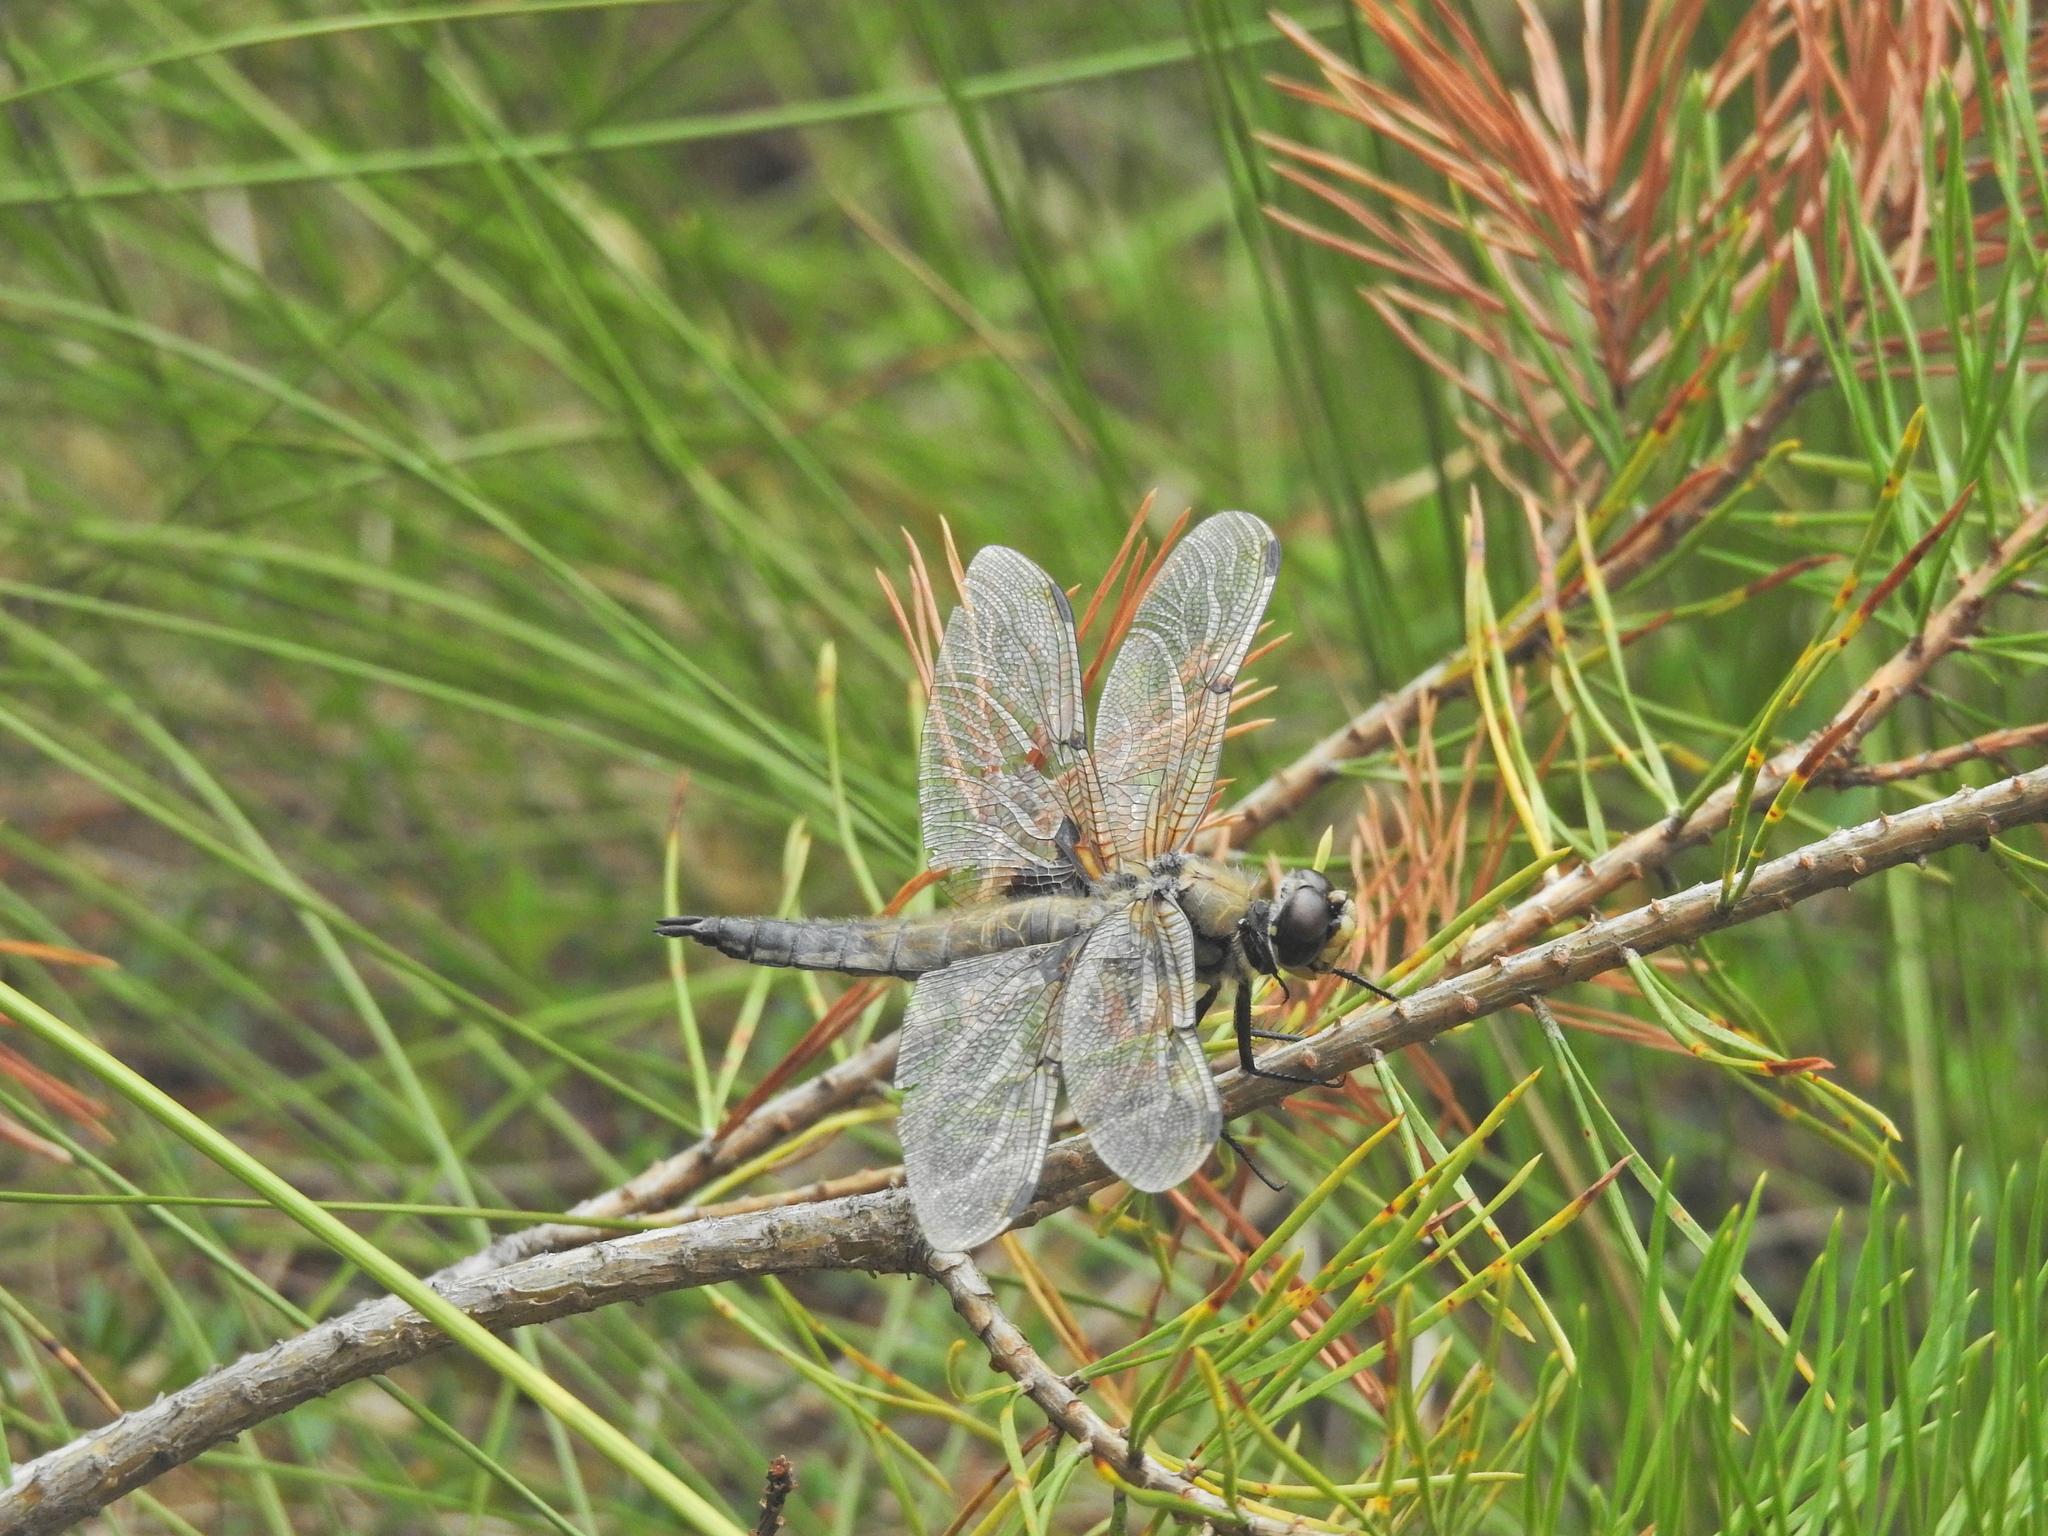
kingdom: Animalia
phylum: Arthropoda
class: Insecta
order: Odonata
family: Libellulidae
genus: Libellula
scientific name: Libellula quadrimaculata
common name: Four-spotted chaser
